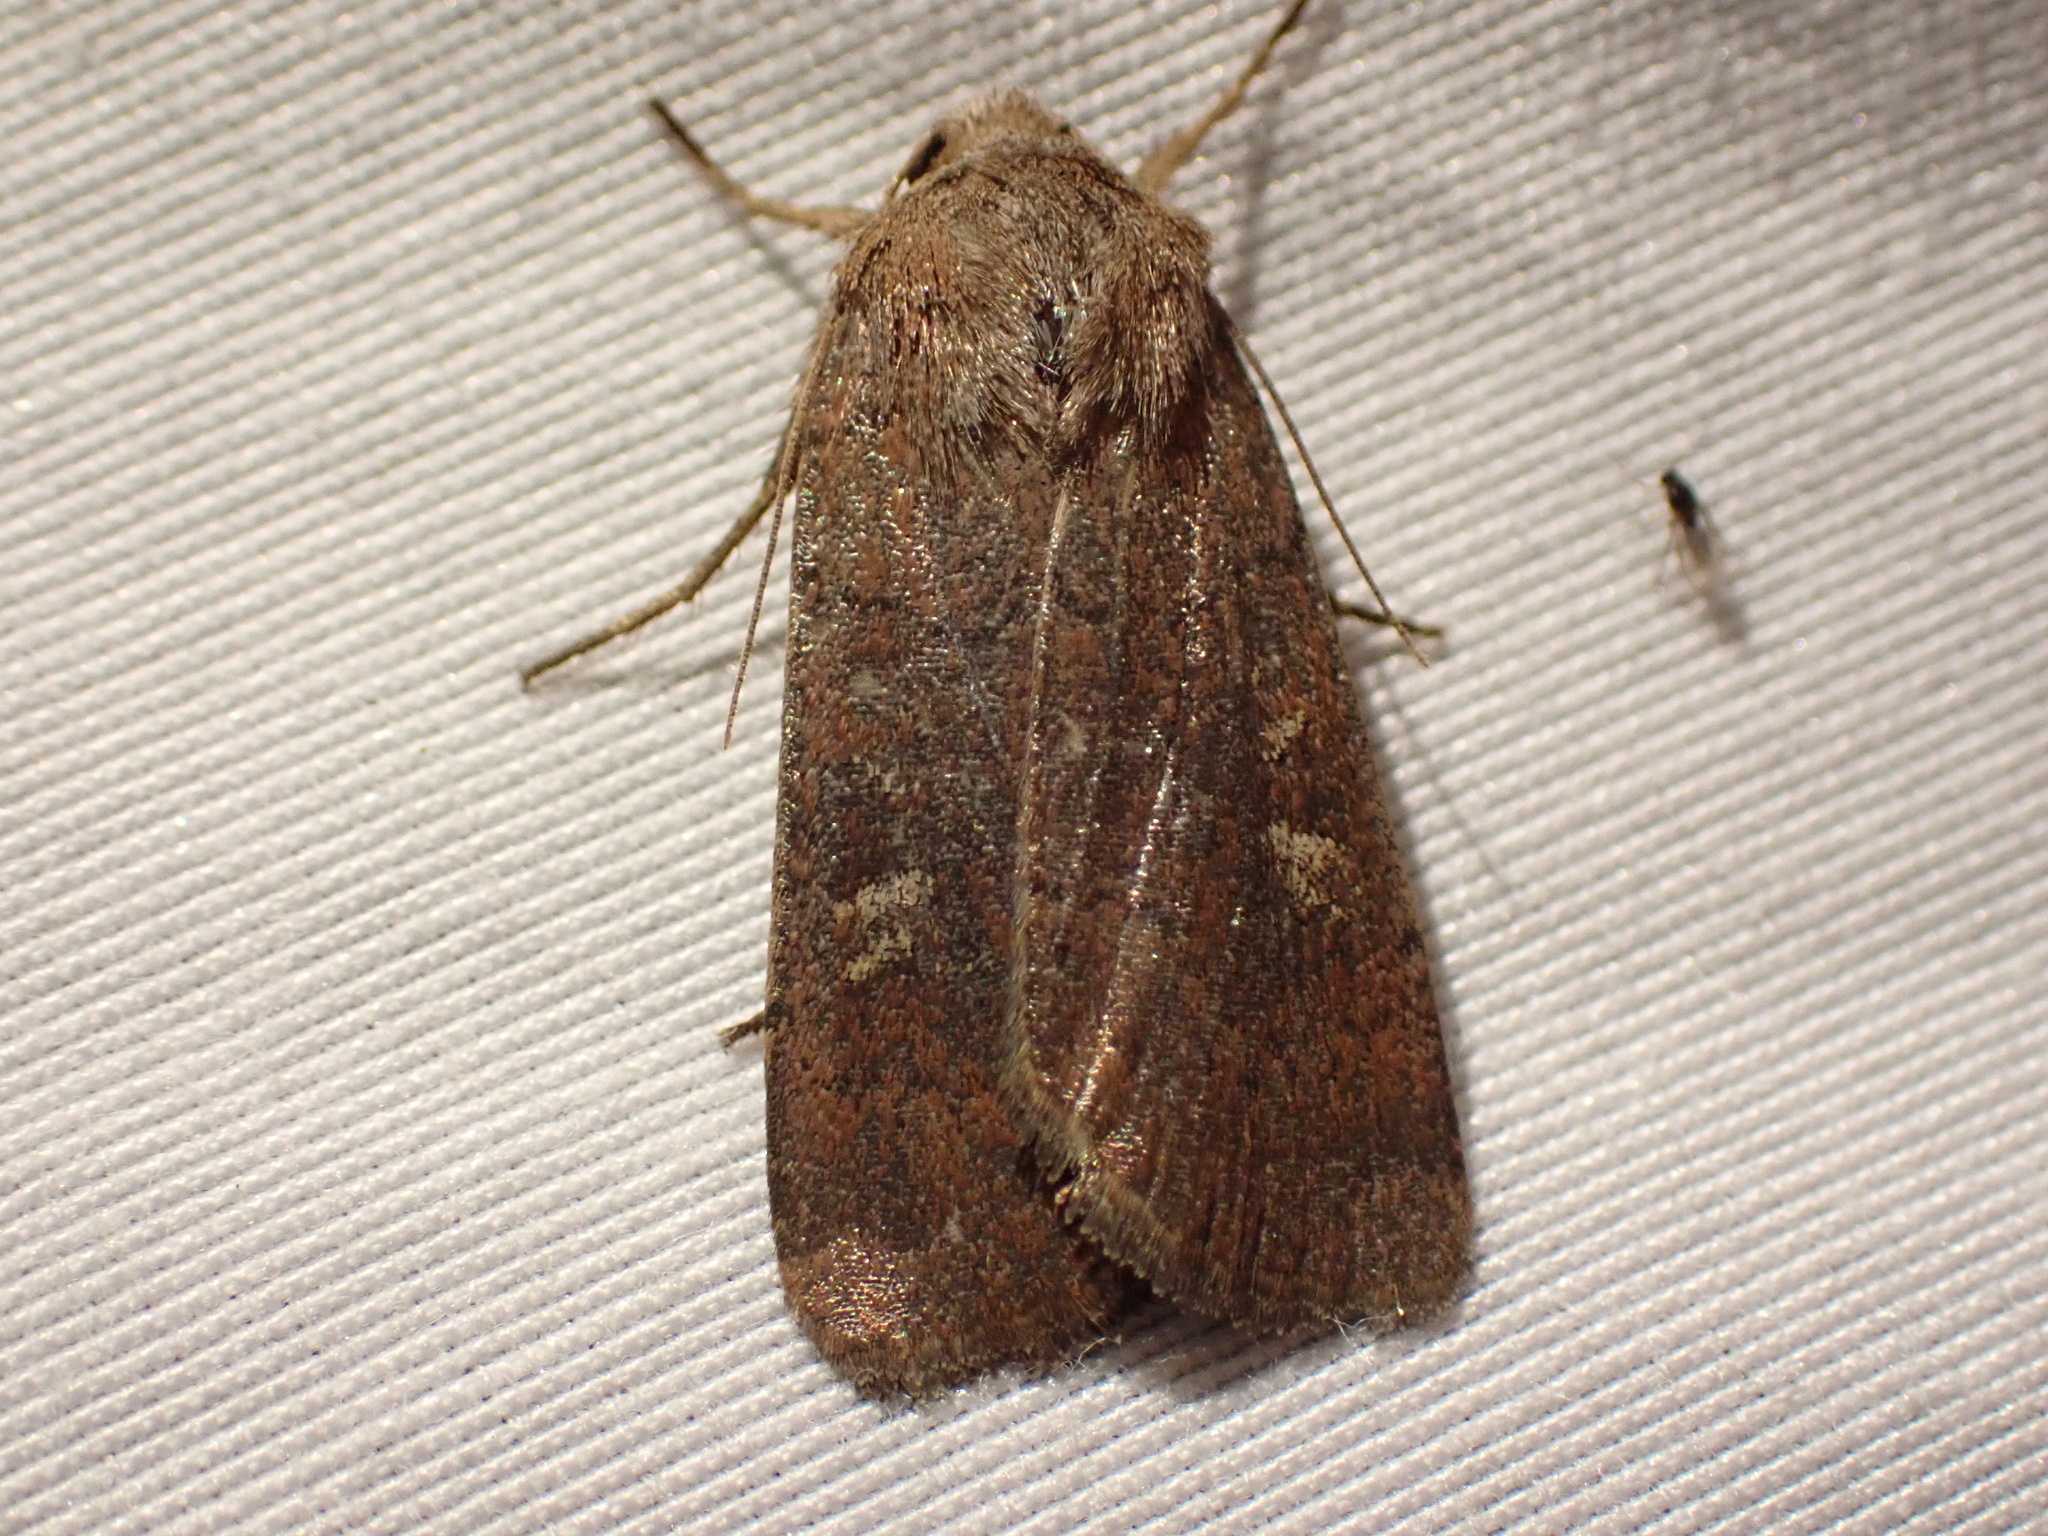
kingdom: Animalia
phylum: Arthropoda
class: Insecta
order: Lepidoptera
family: Noctuidae
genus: Xestia
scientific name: Xestia xanthographa
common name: Square-spot rustic
